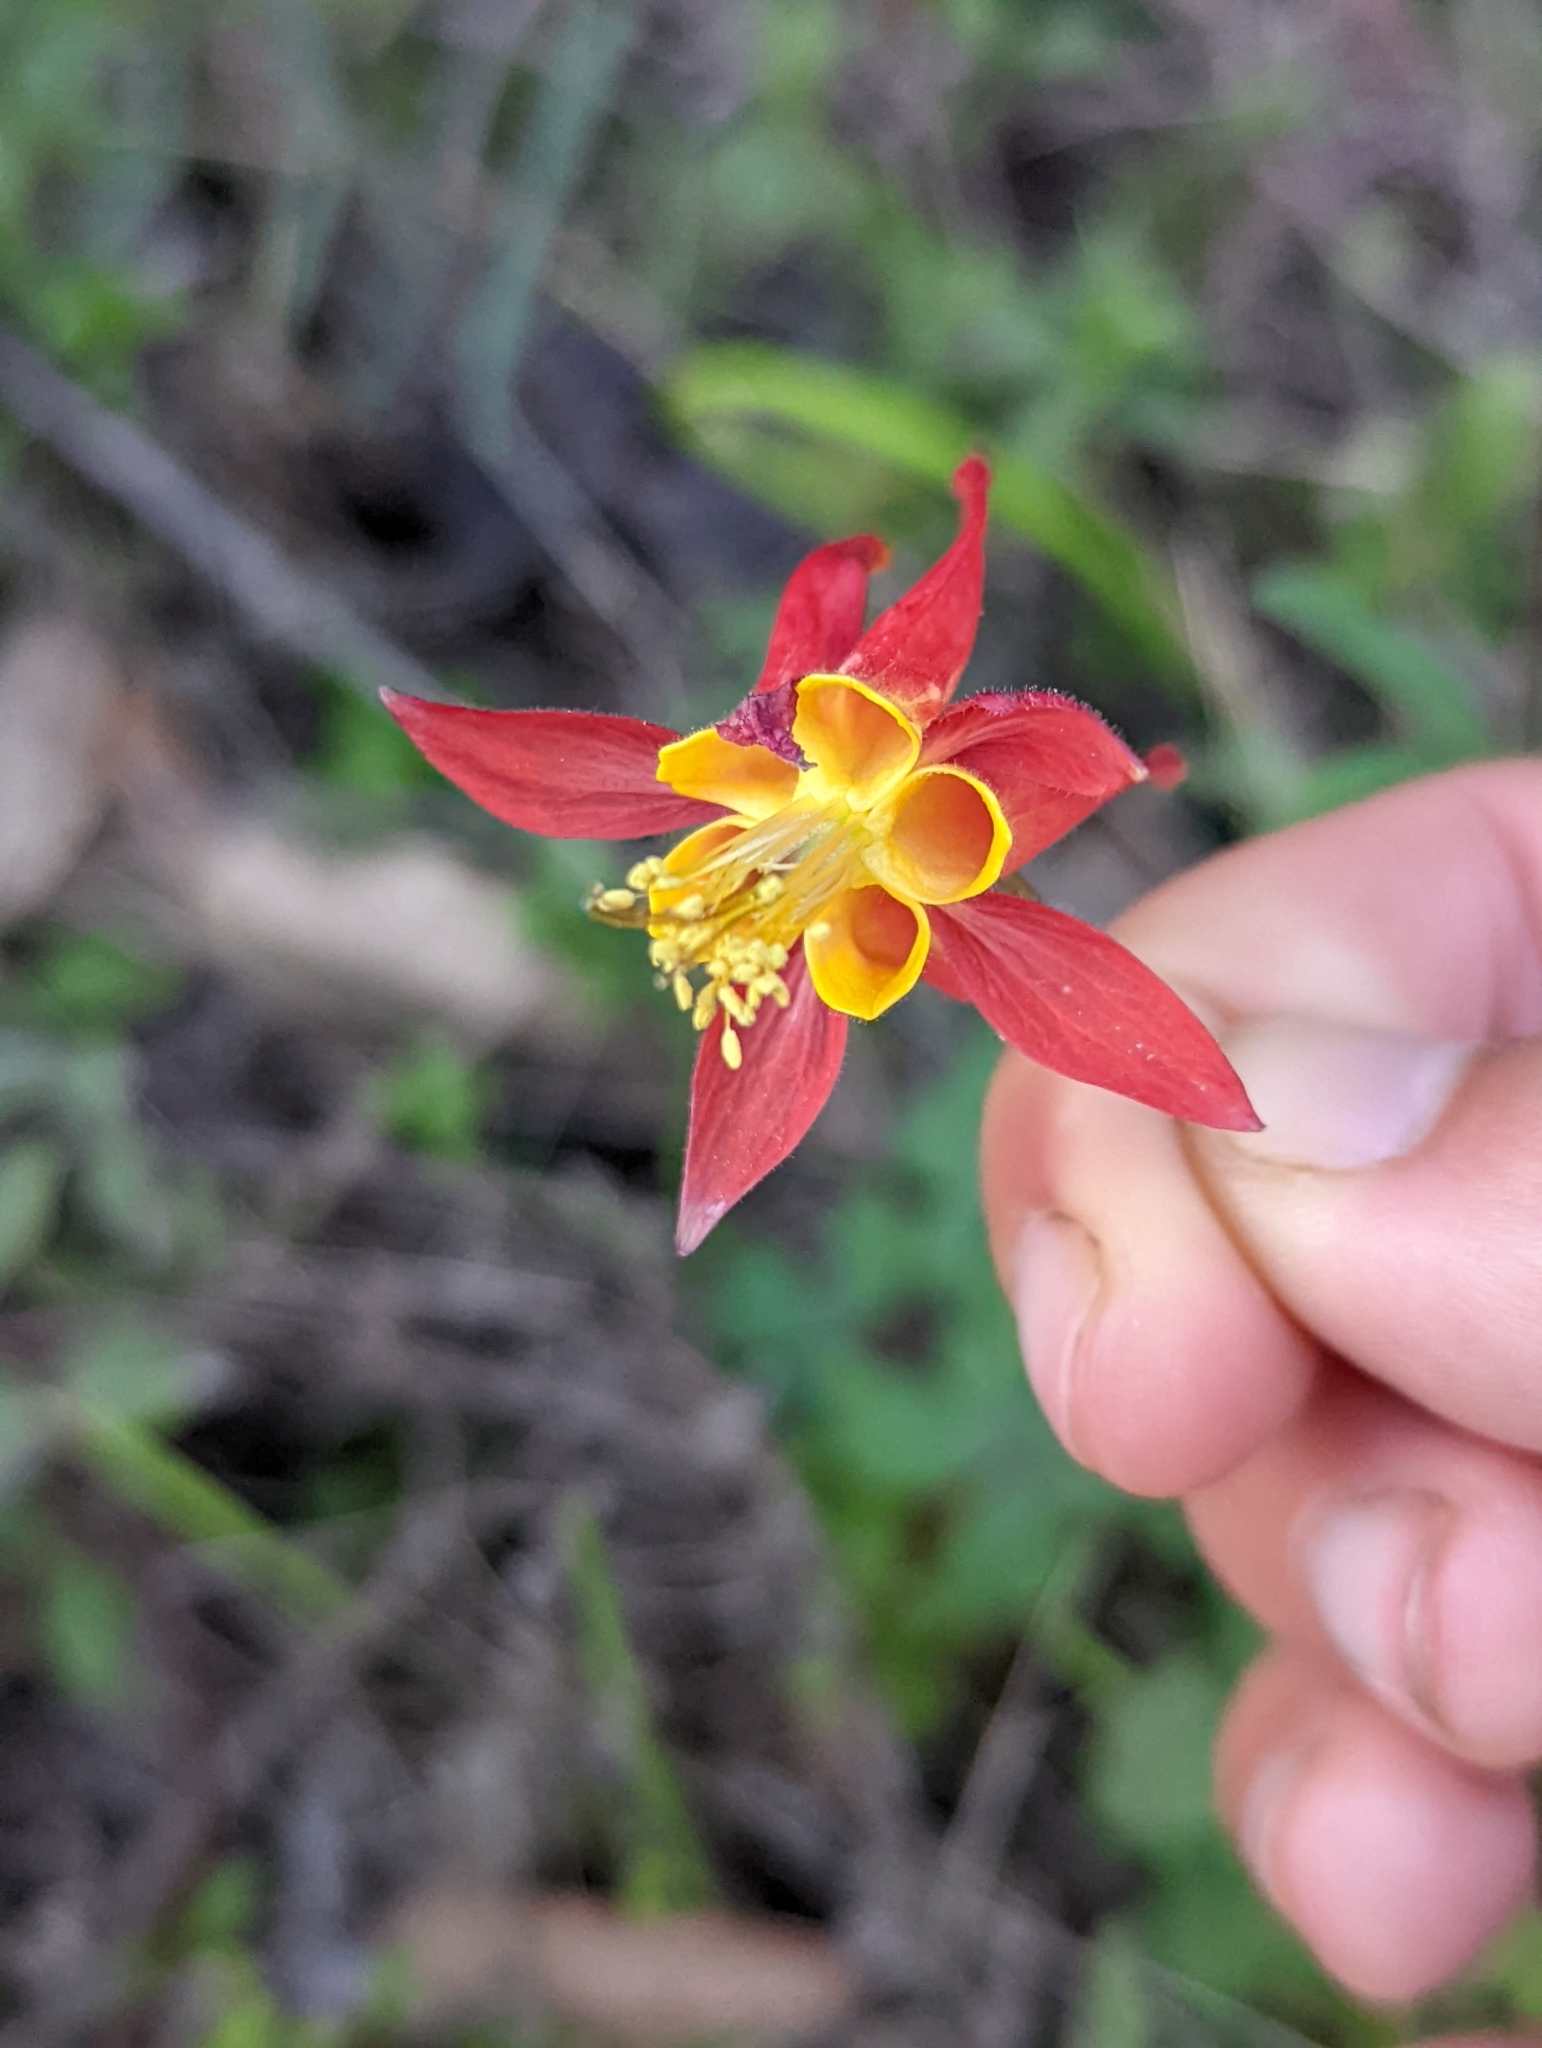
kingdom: Plantae
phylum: Tracheophyta
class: Magnoliopsida
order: Ranunculales
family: Ranunculaceae
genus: Aquilegia
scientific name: Aquilegia formosa
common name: Sitka columbine
